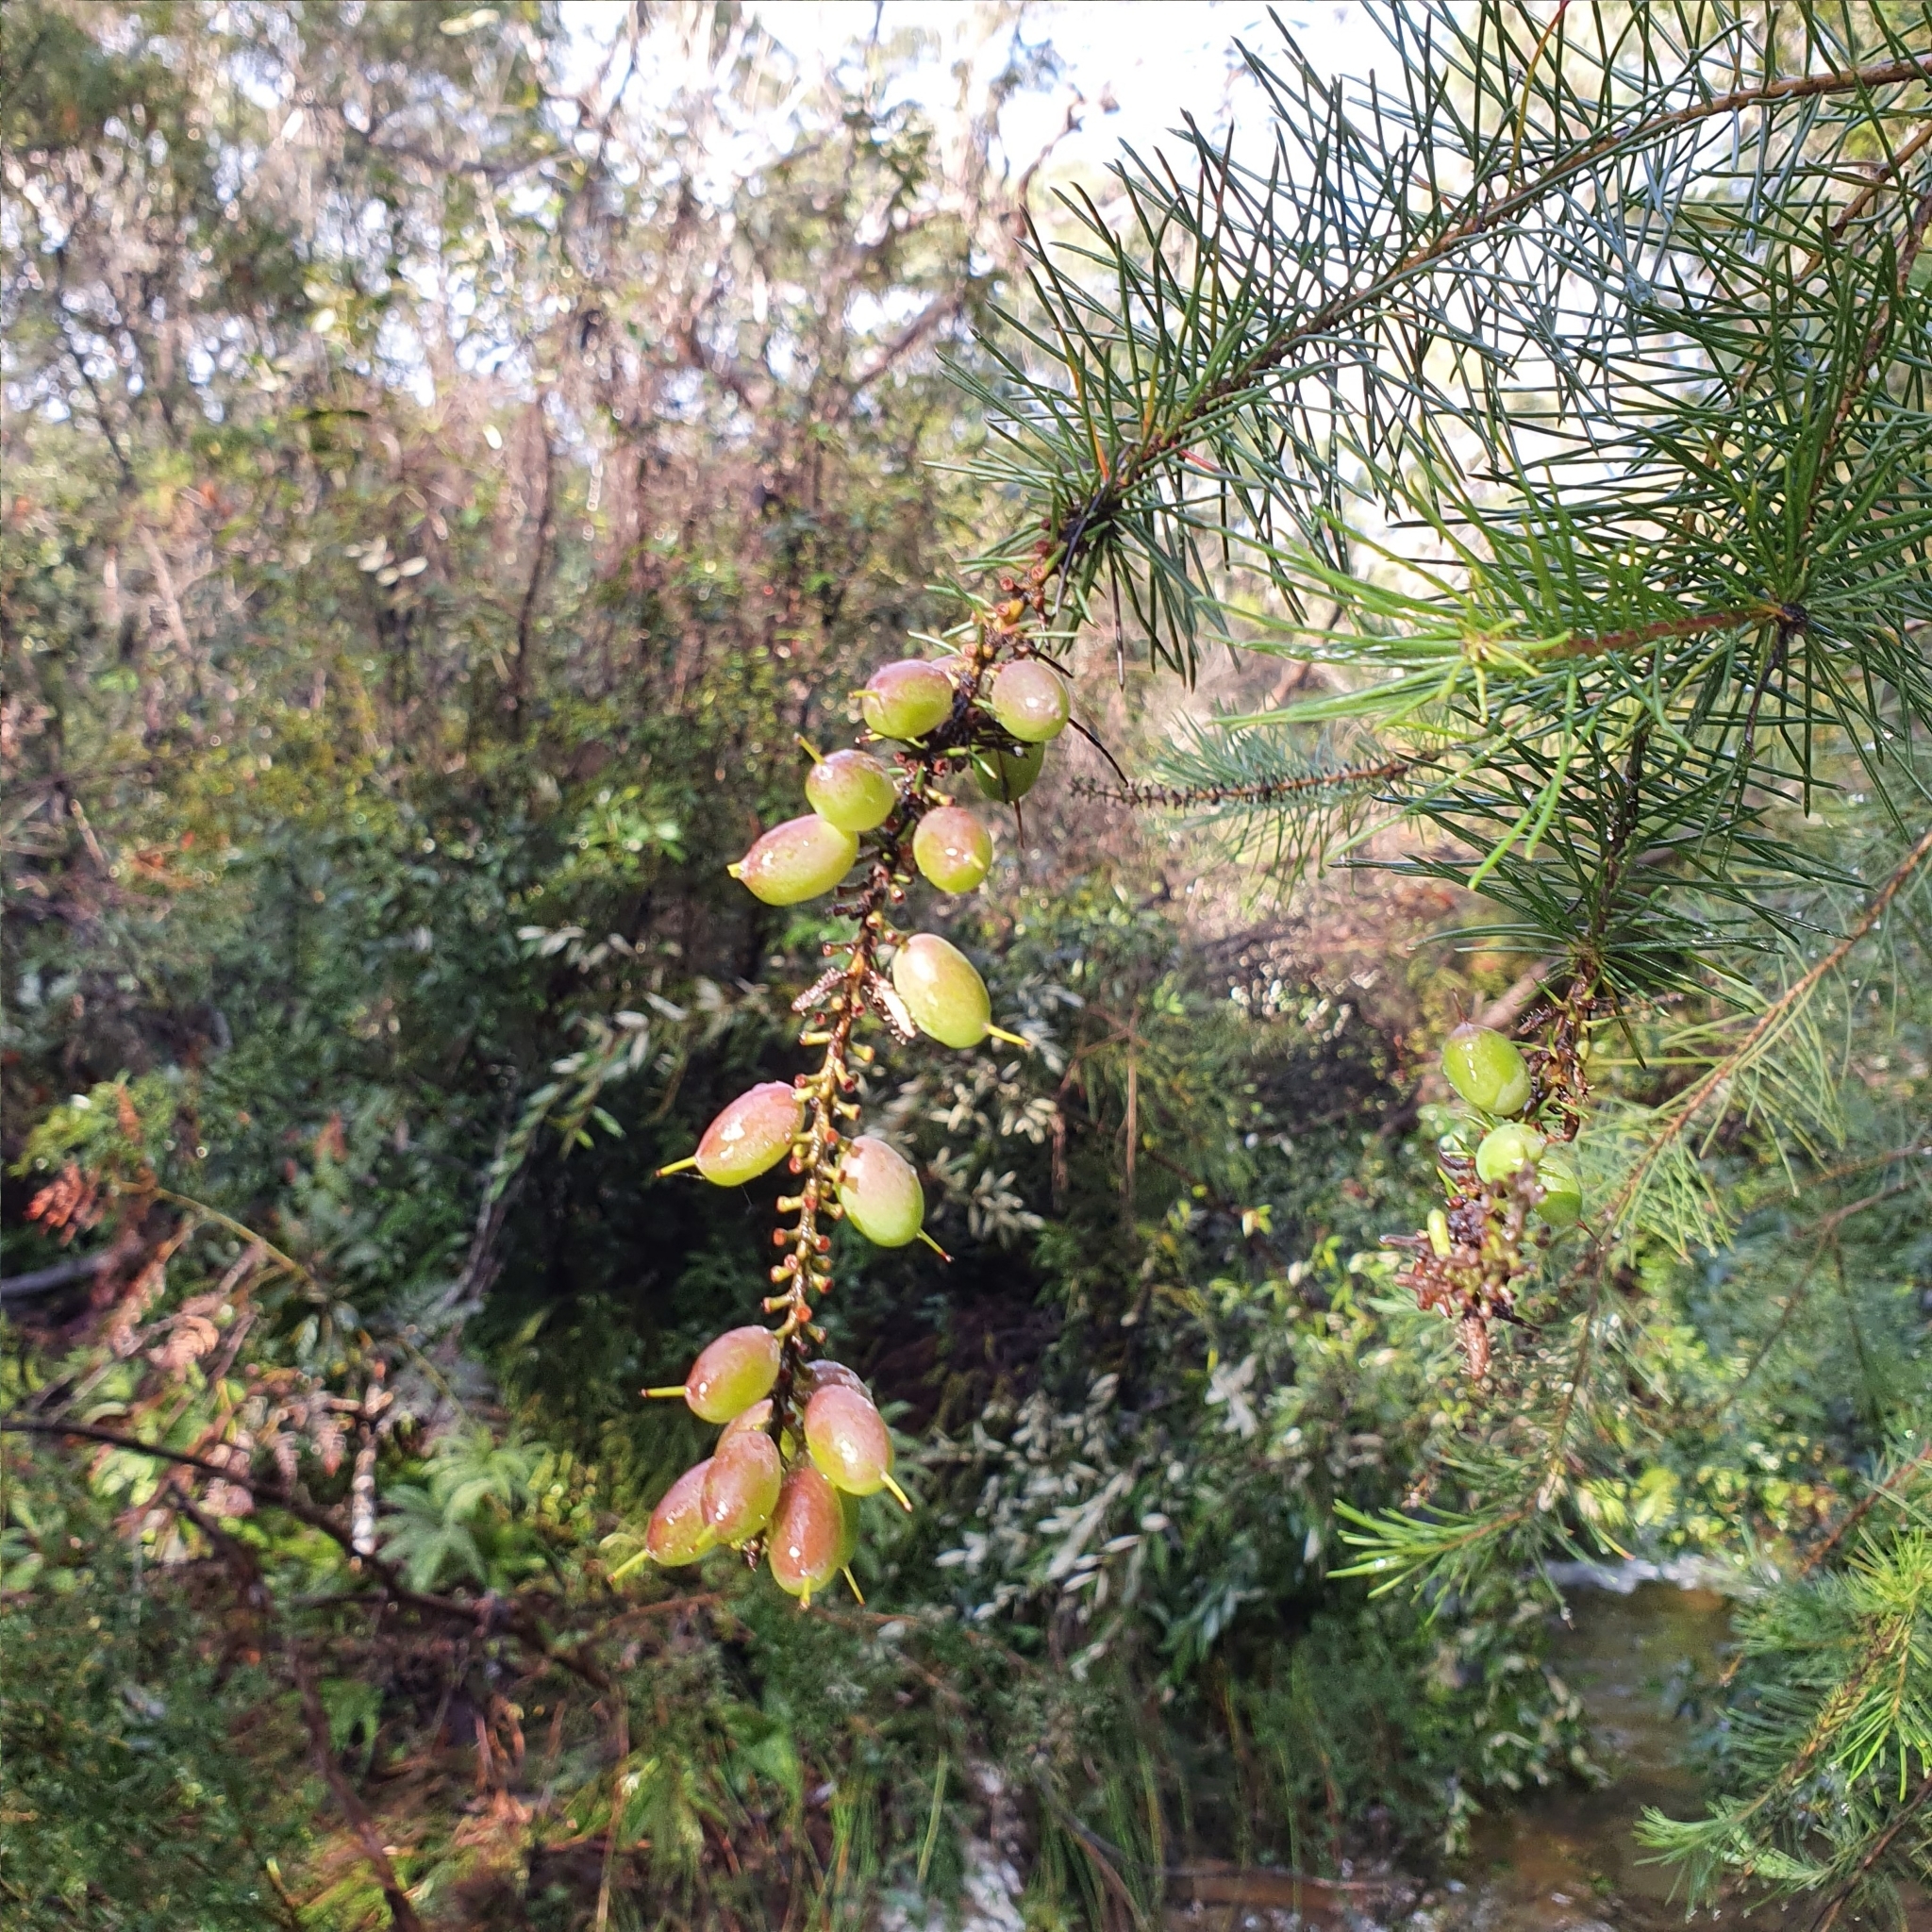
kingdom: Plantae
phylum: Tracheophyta
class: Magnoliopsida
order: Proteales
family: Proteaceae
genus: Persoonia
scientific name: Persoonia pinifolia
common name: Pine-leaf geebung
